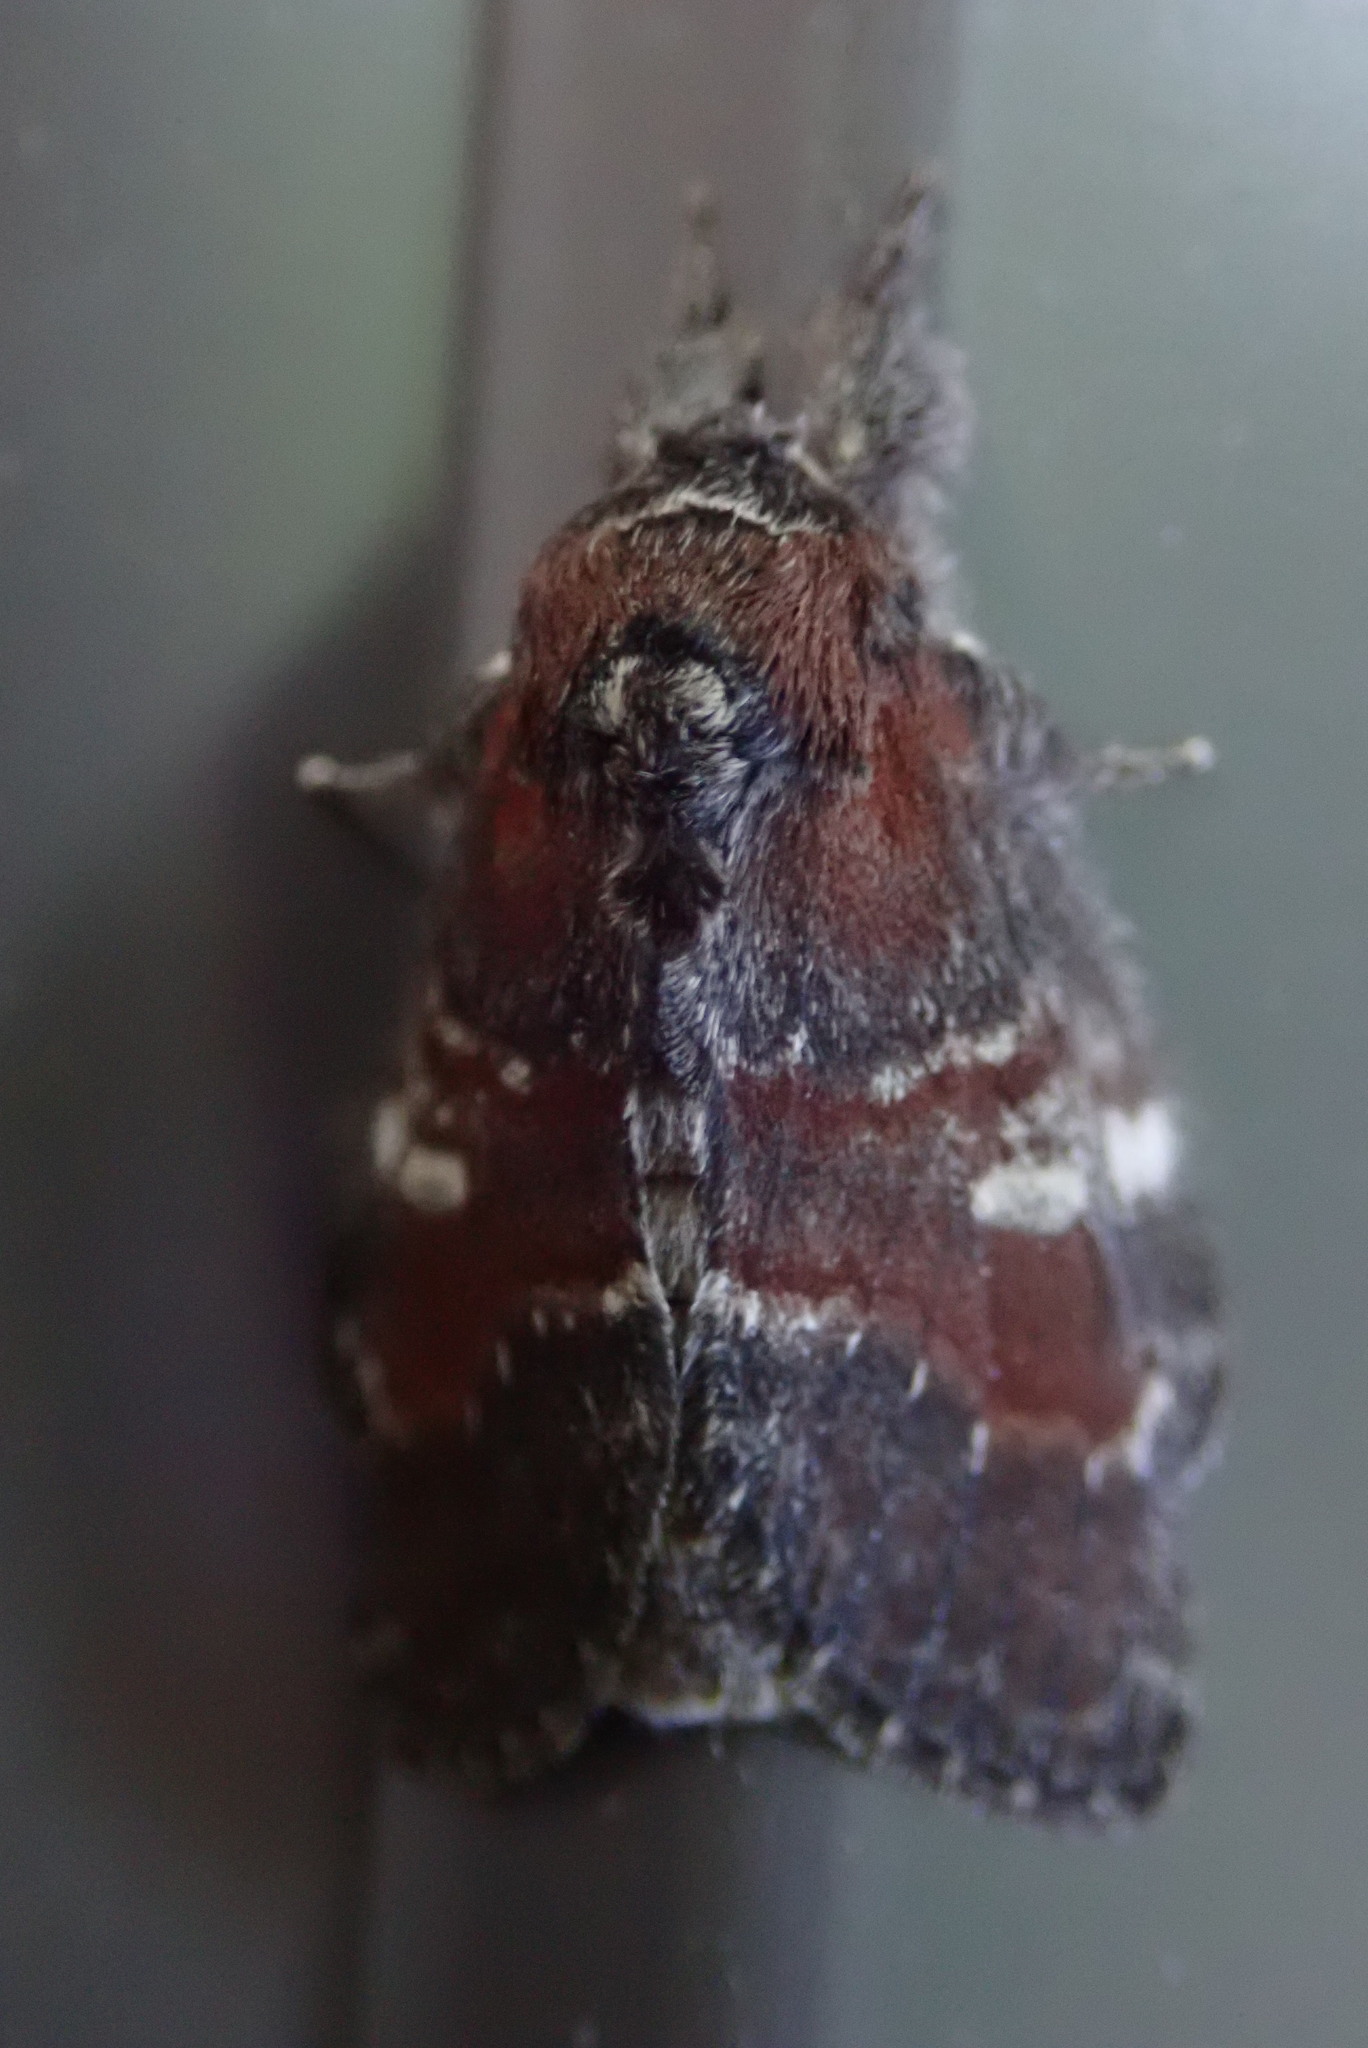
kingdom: Animalia
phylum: Arthropoda
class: Insecta
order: Lepidoptera
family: Notodontidae
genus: Peridea
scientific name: Peridea ferruginea
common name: Chocolate prominent
